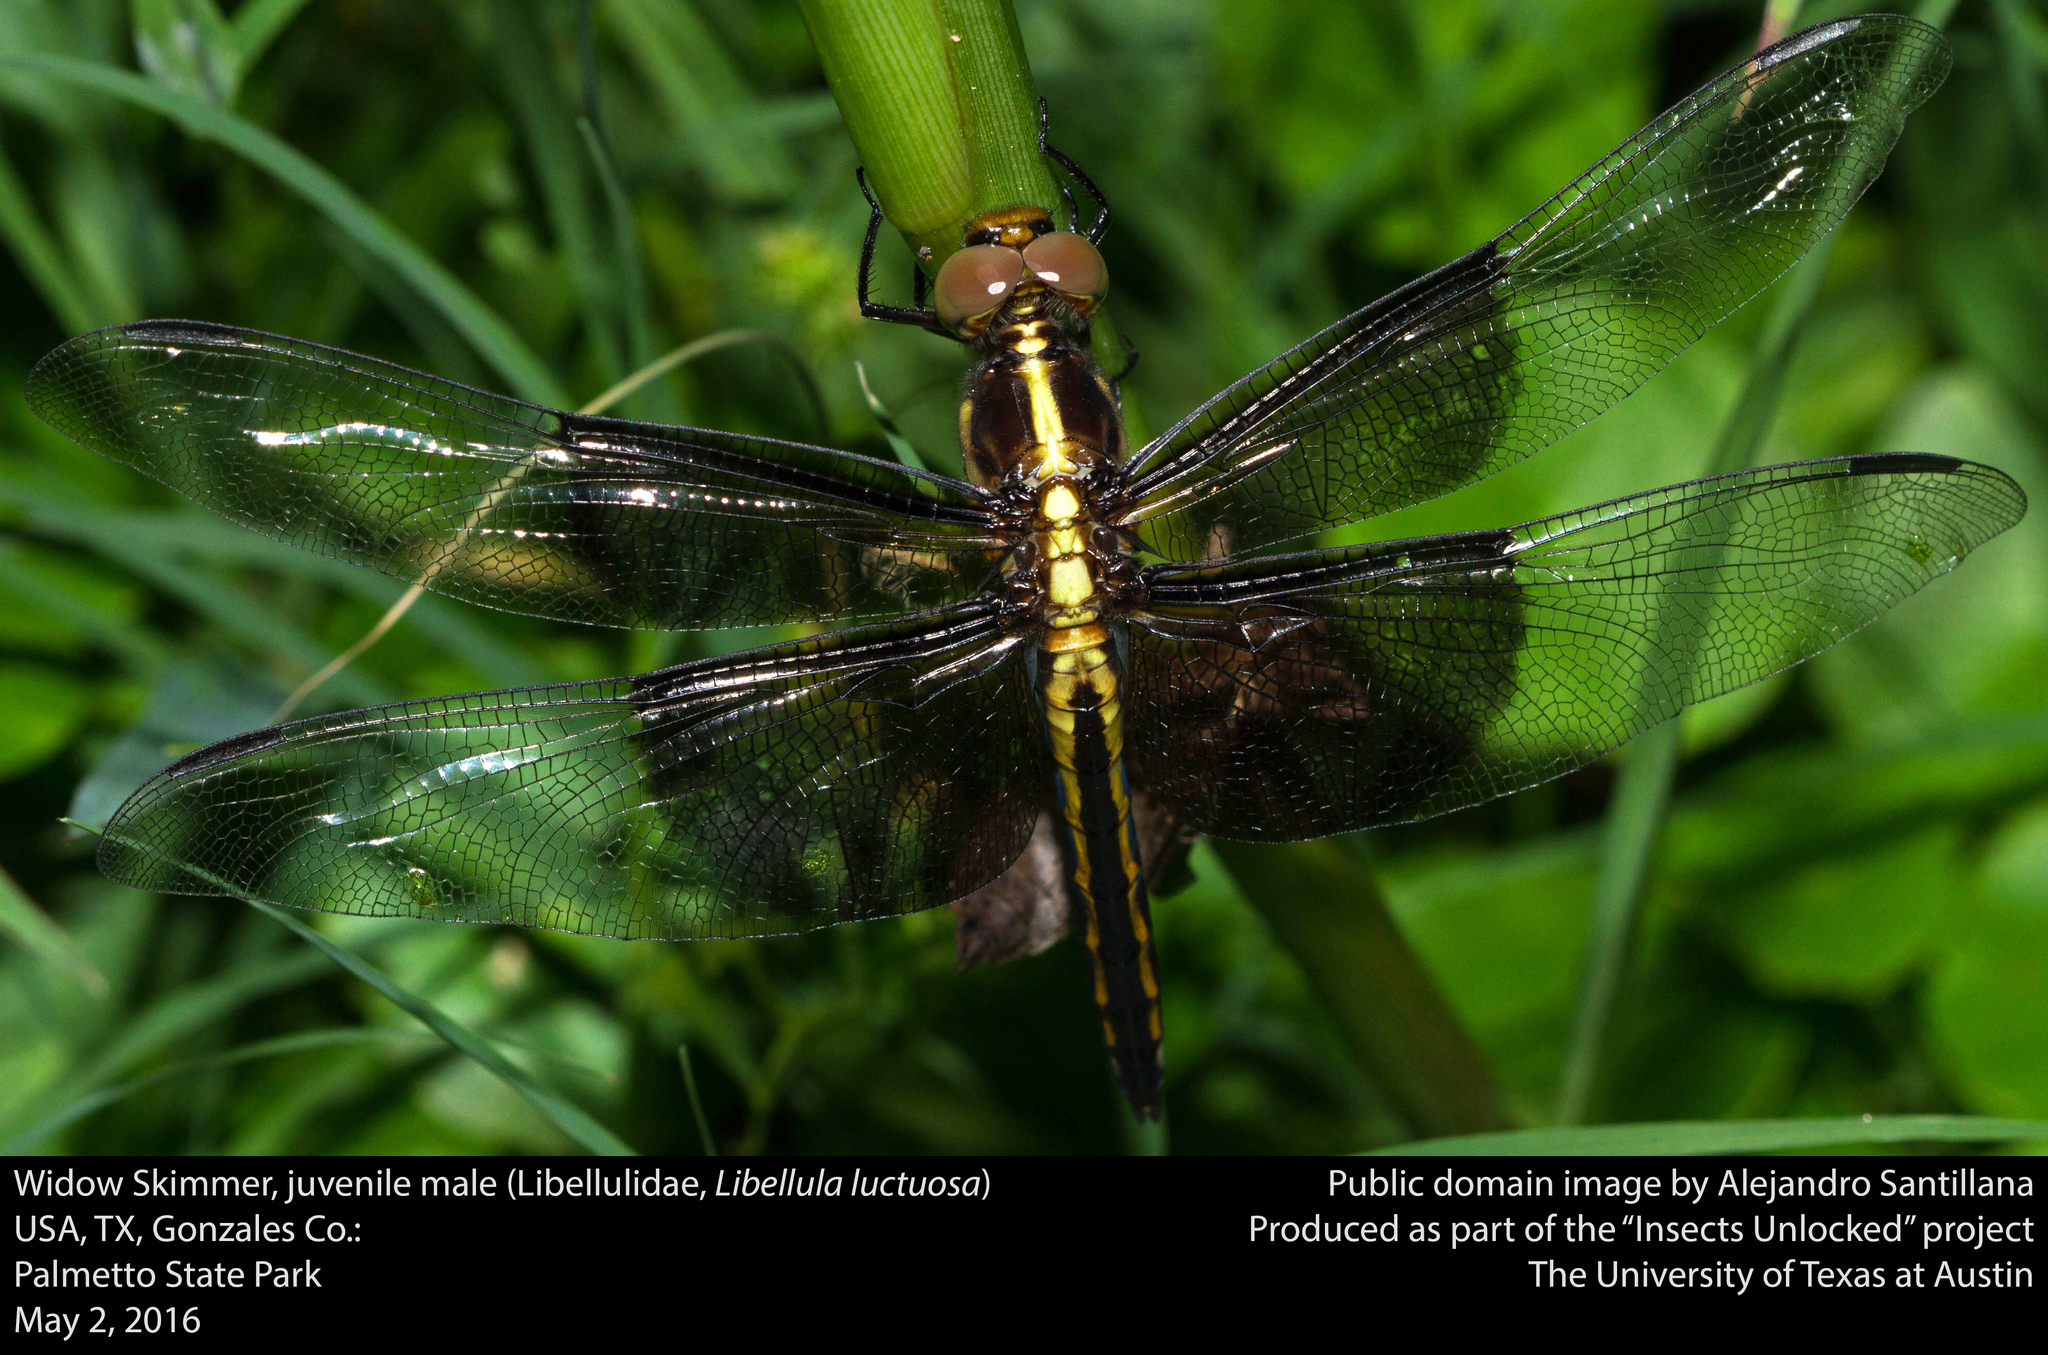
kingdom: Animalia
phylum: Arthropoda
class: Insecta
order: Odonata
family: Libellulidae
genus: Libellula
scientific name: Libellula luctuosa
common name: Widow skimmer
